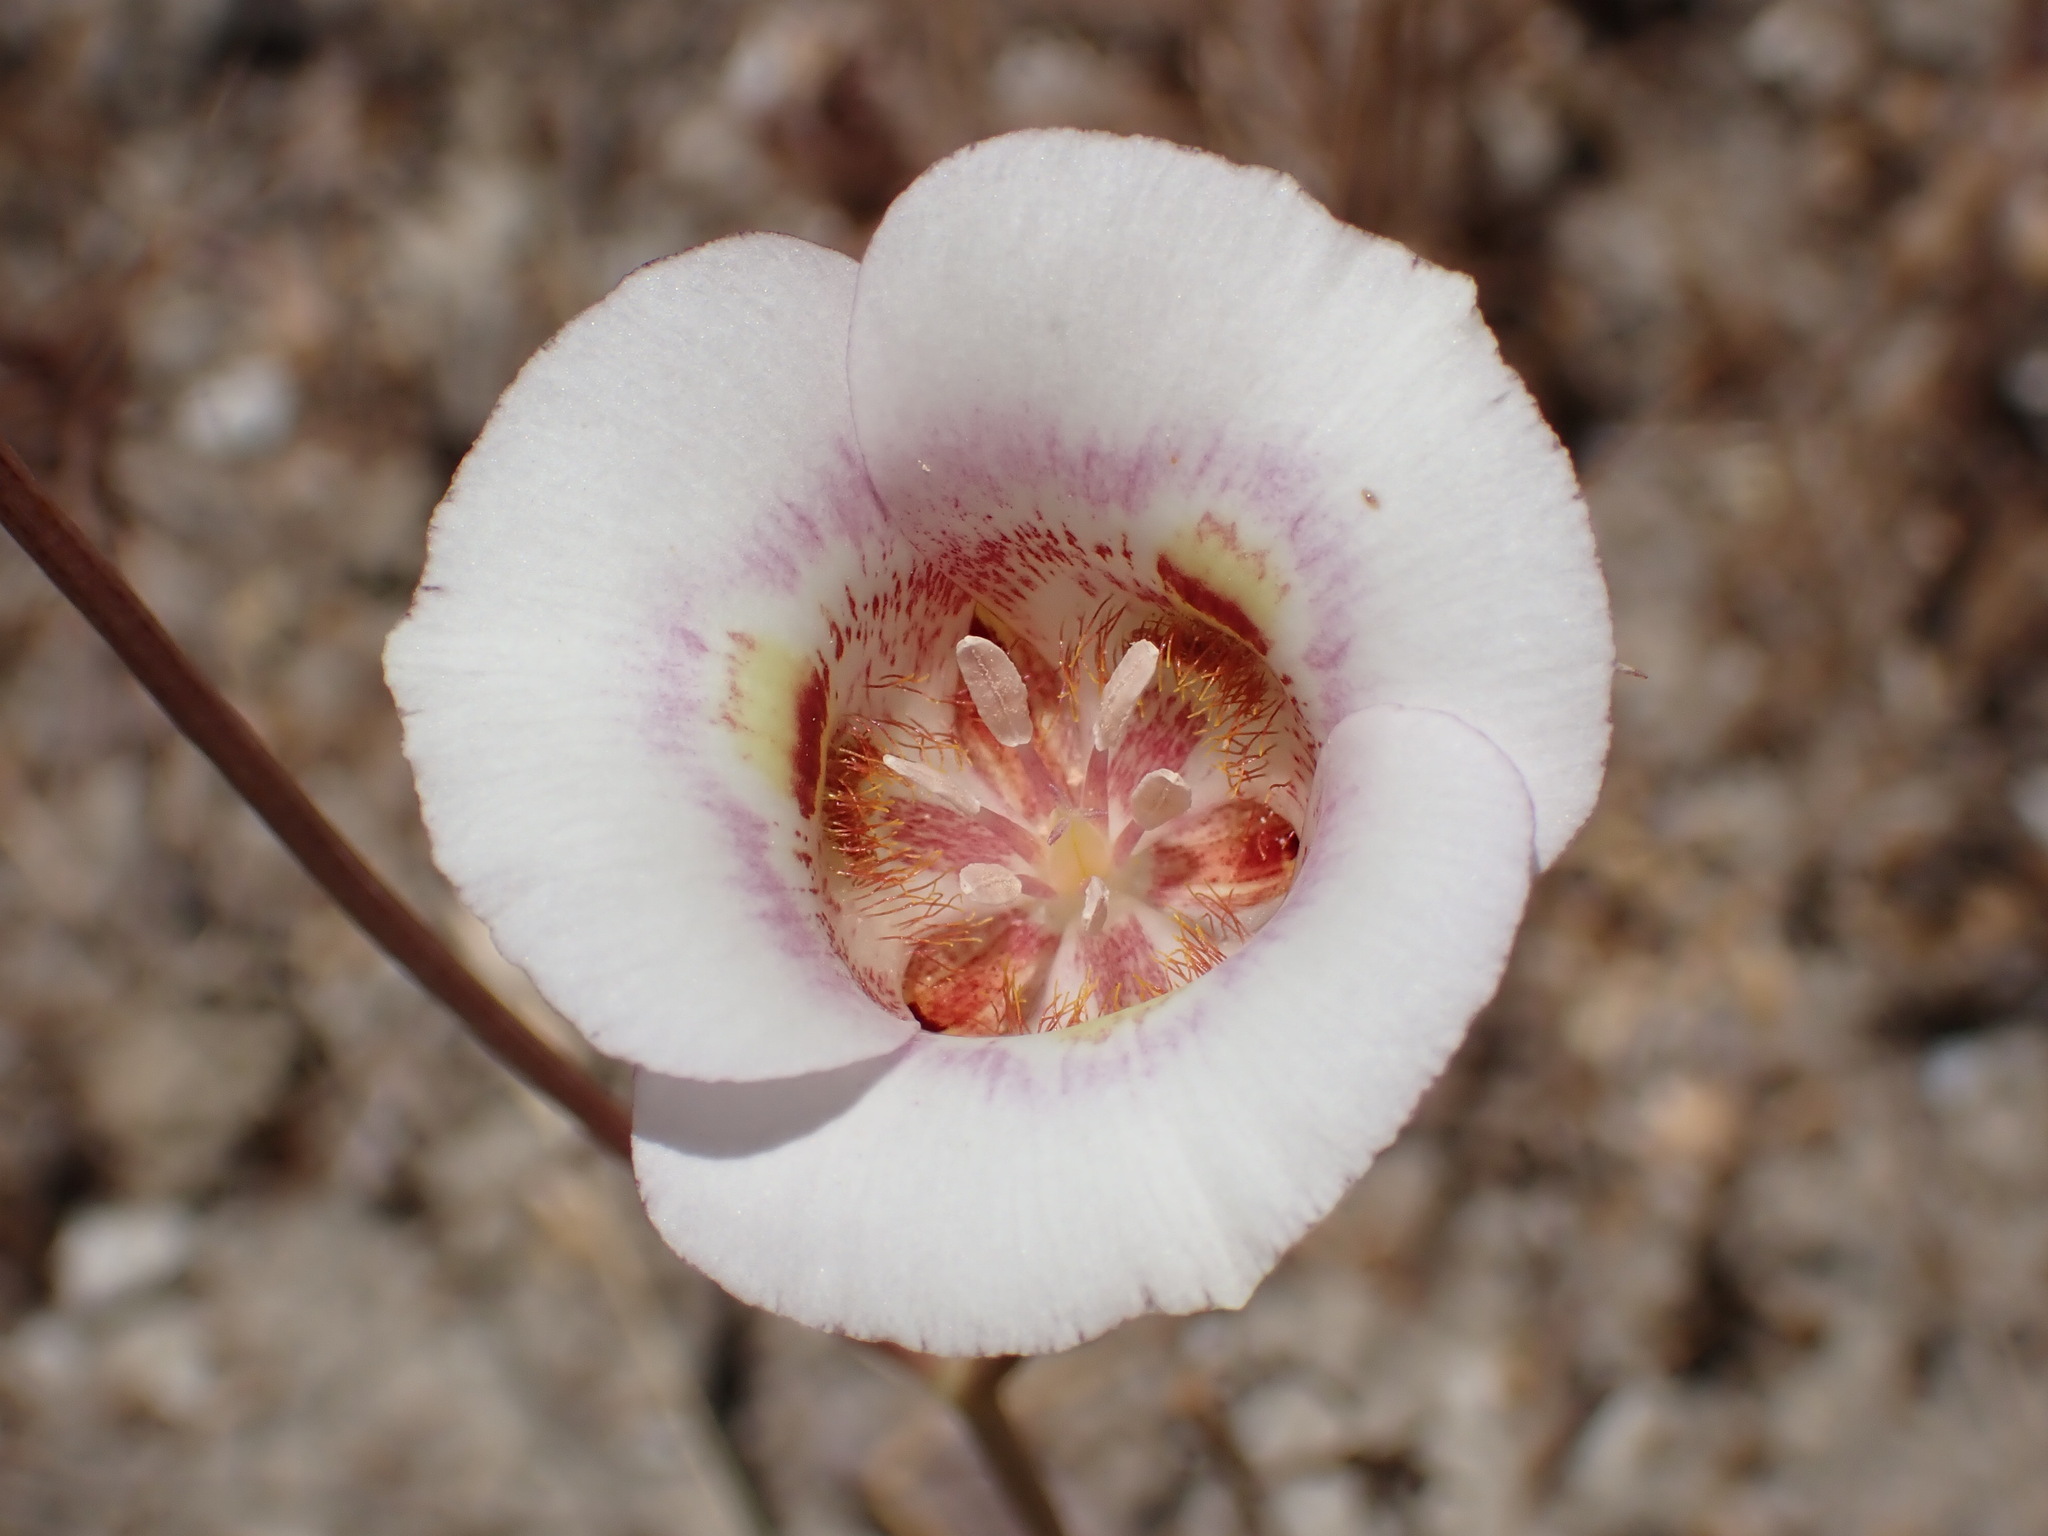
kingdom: Plantae
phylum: Tracheophyta
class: Liliopsida
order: Liliales
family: Liliaceae
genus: Calochortus
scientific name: Calochortus argillosus
